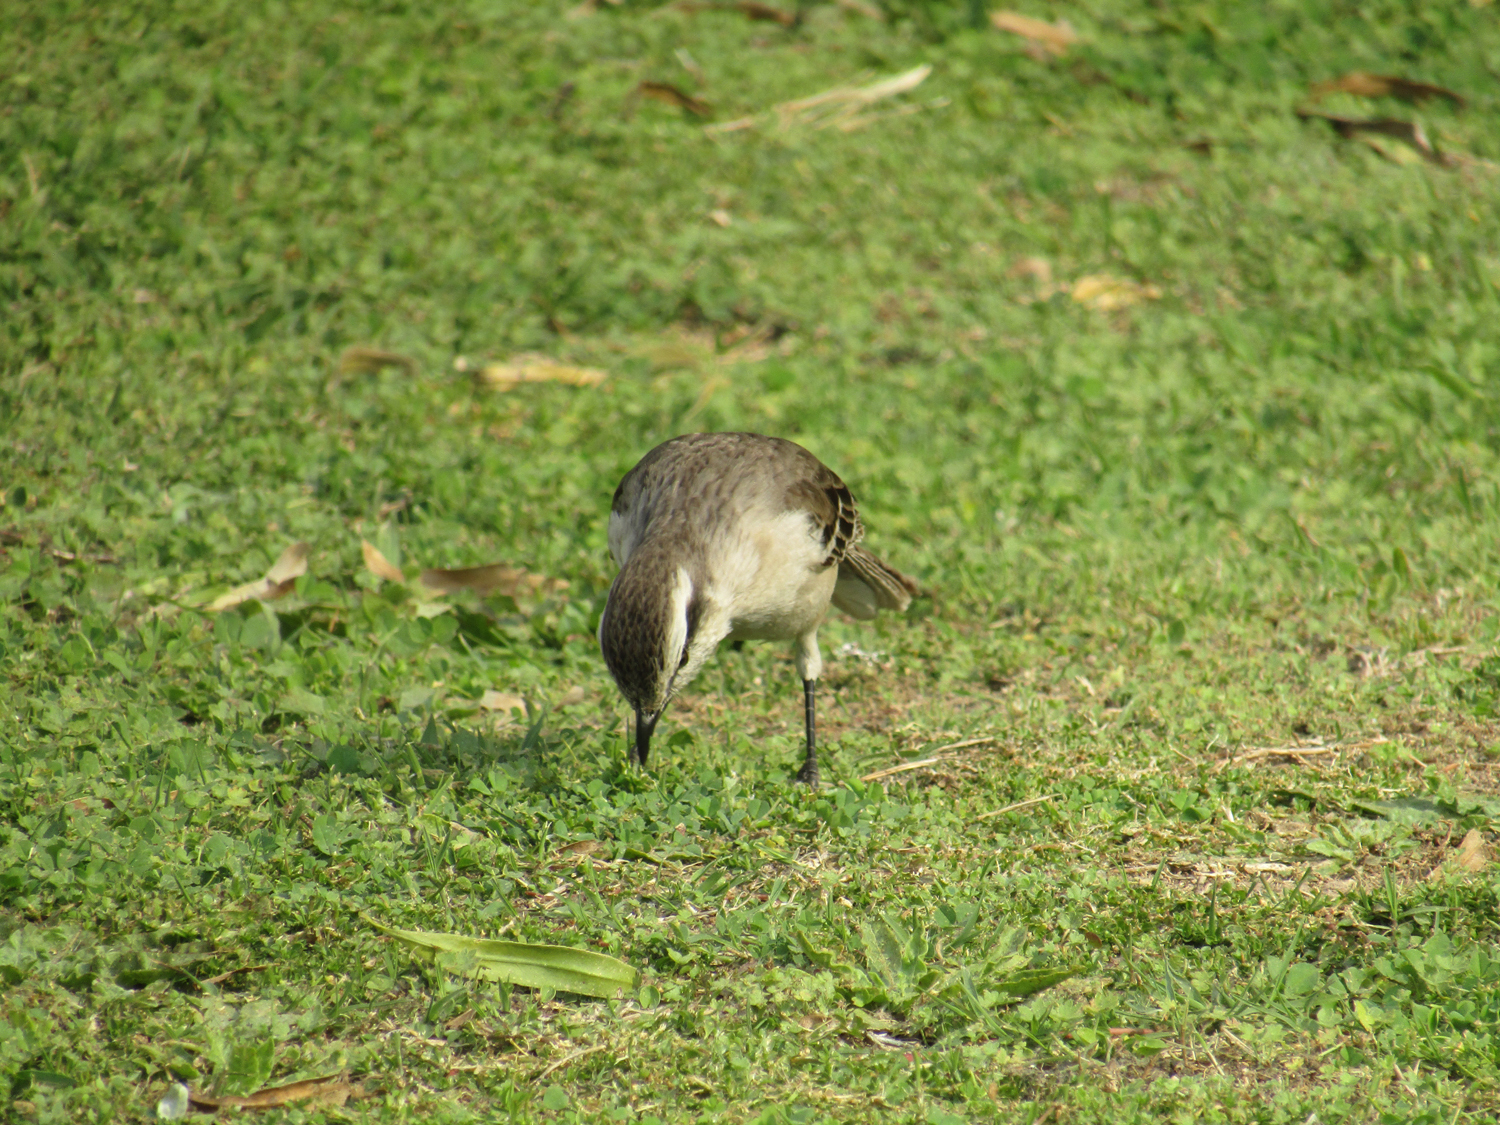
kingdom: Animalia
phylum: Chordata
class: Aves
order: Passeriformes
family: Mimidae
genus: Mimus
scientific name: Mimus saturninus
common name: Chalk-browed mockingbird
